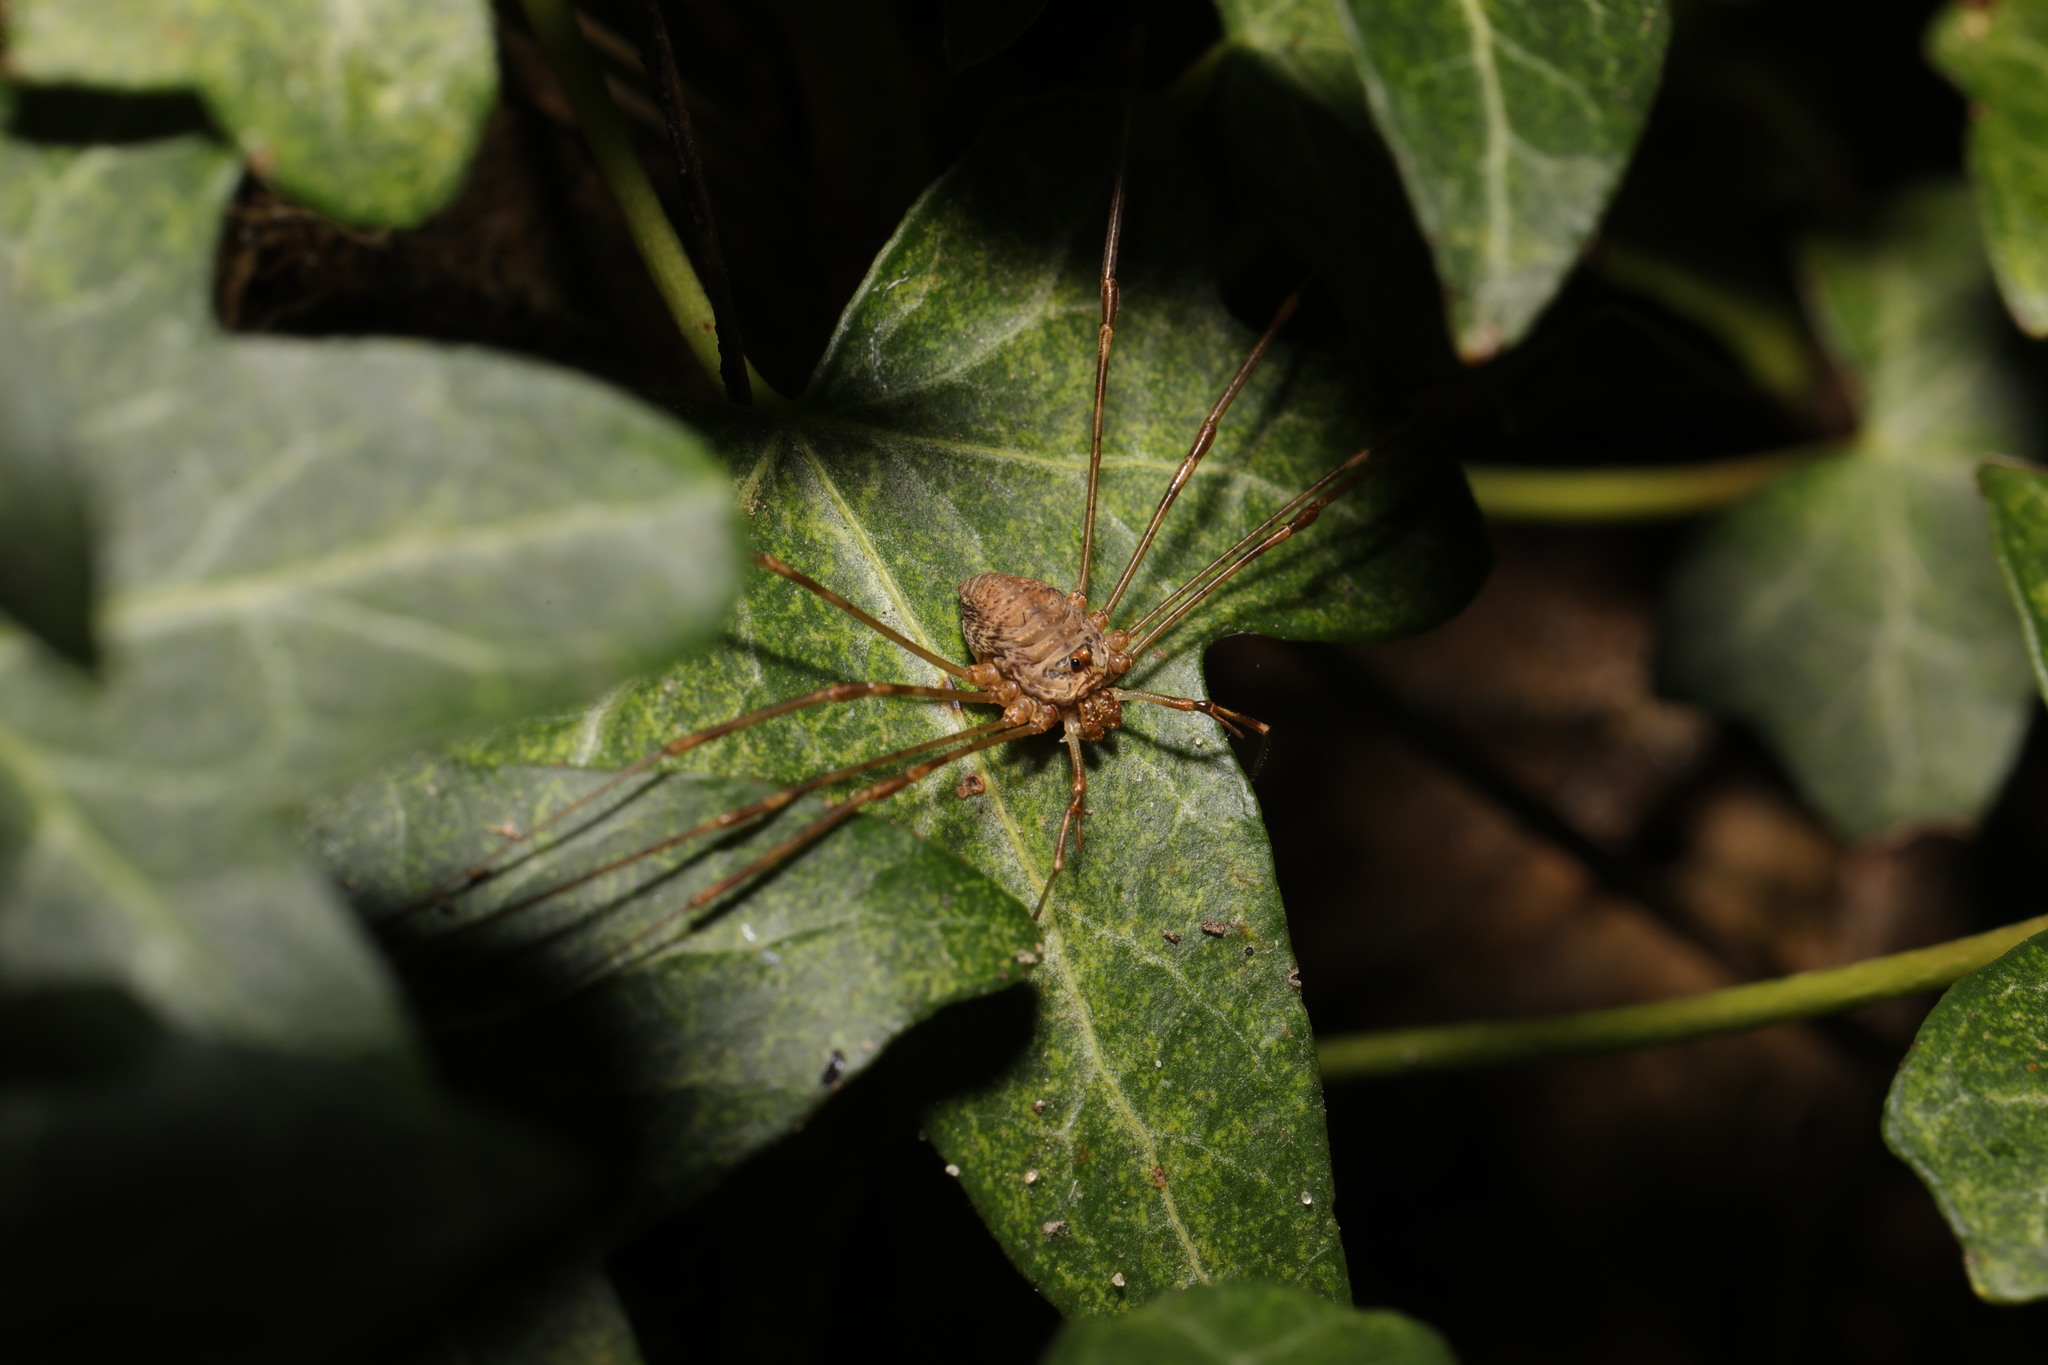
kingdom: Animalia
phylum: Arthropoda
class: Arachnida
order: Opiliones
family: Phalangiidae
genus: Dicranopalpus
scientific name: Dicranopalpus ramosus
